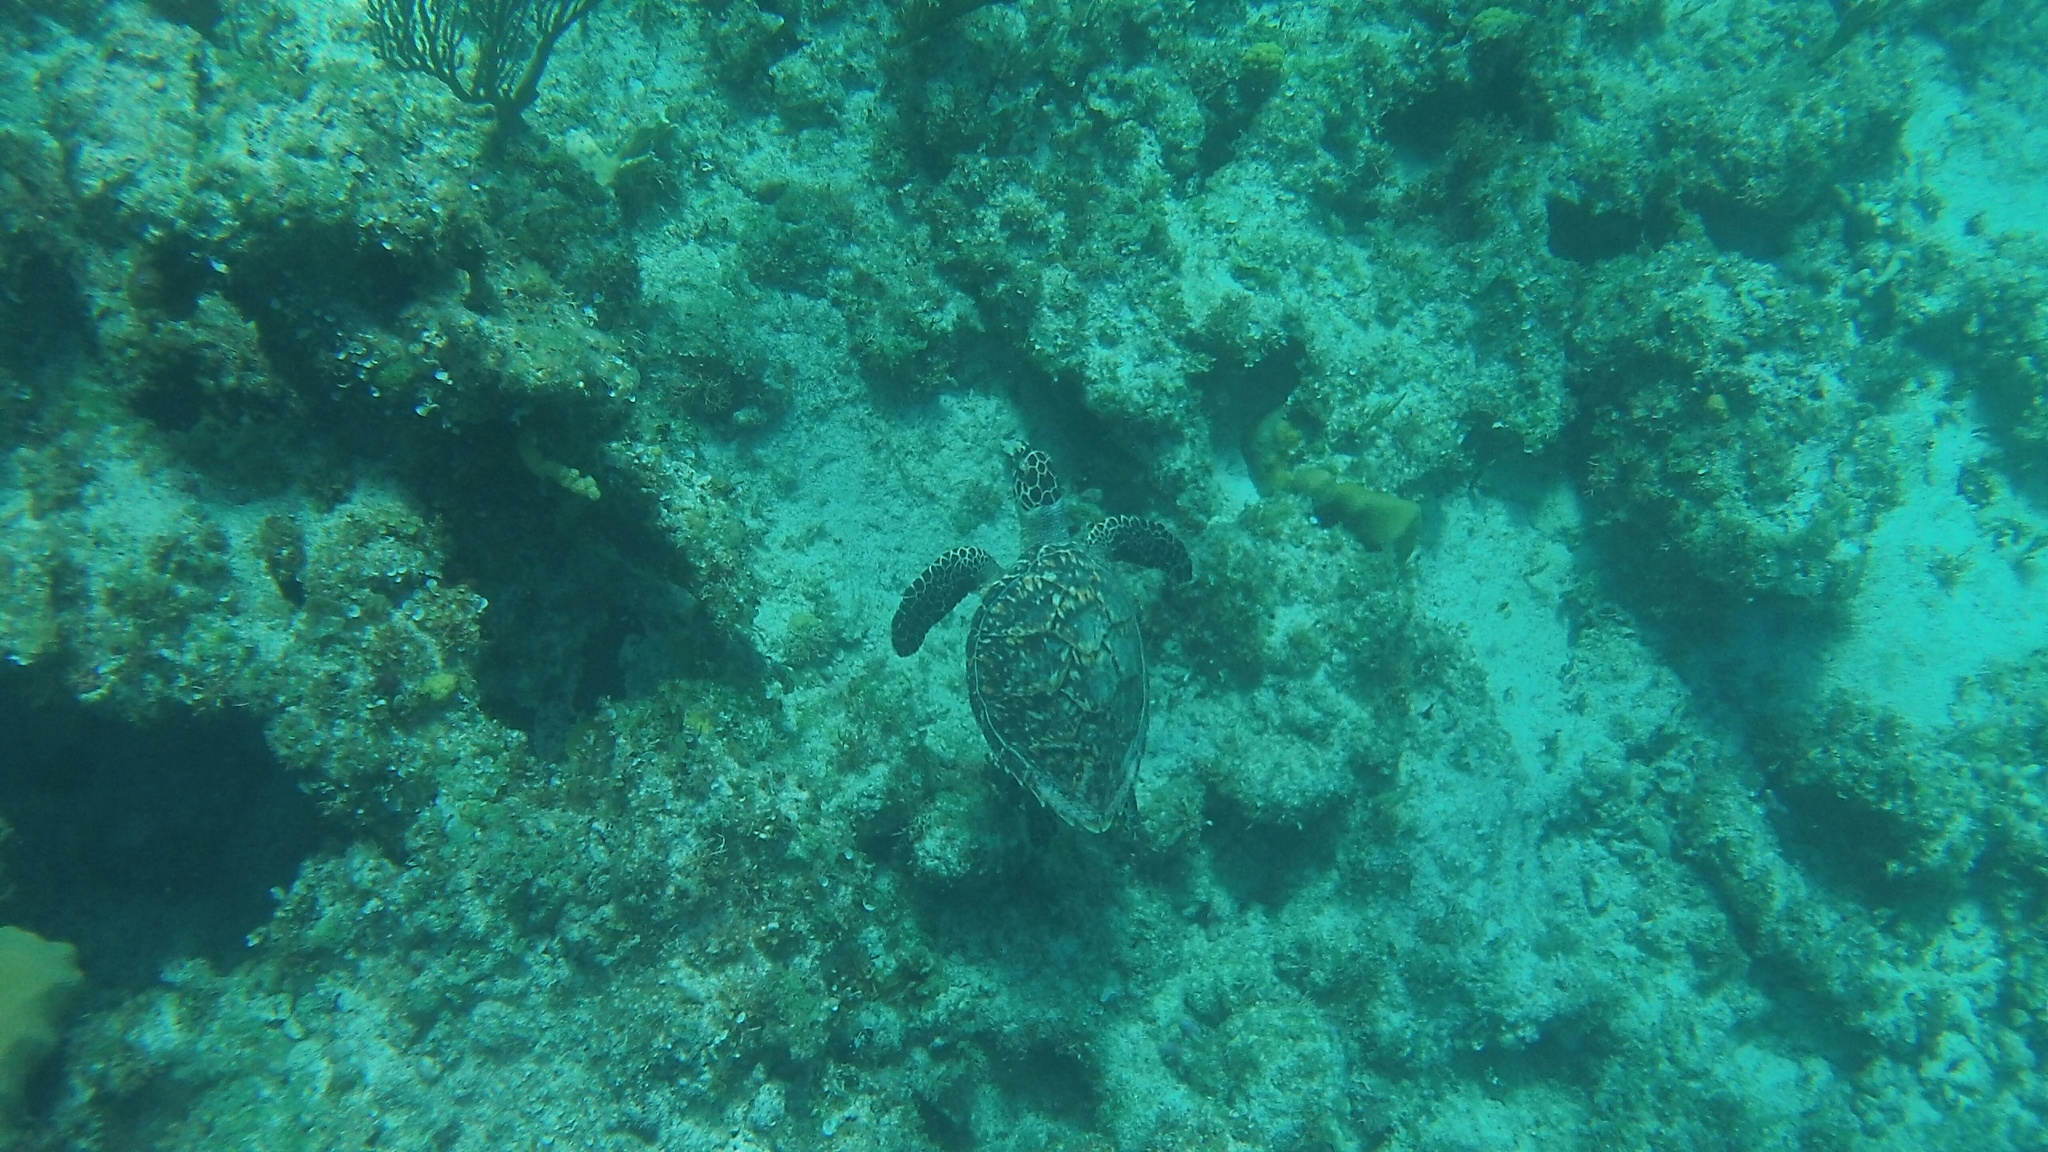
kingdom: Animalia
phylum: Chordata
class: Testudines
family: Cheloniidae
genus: Eretmochelys
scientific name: Eretmochelys imbricata
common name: Hawksbill turtle
